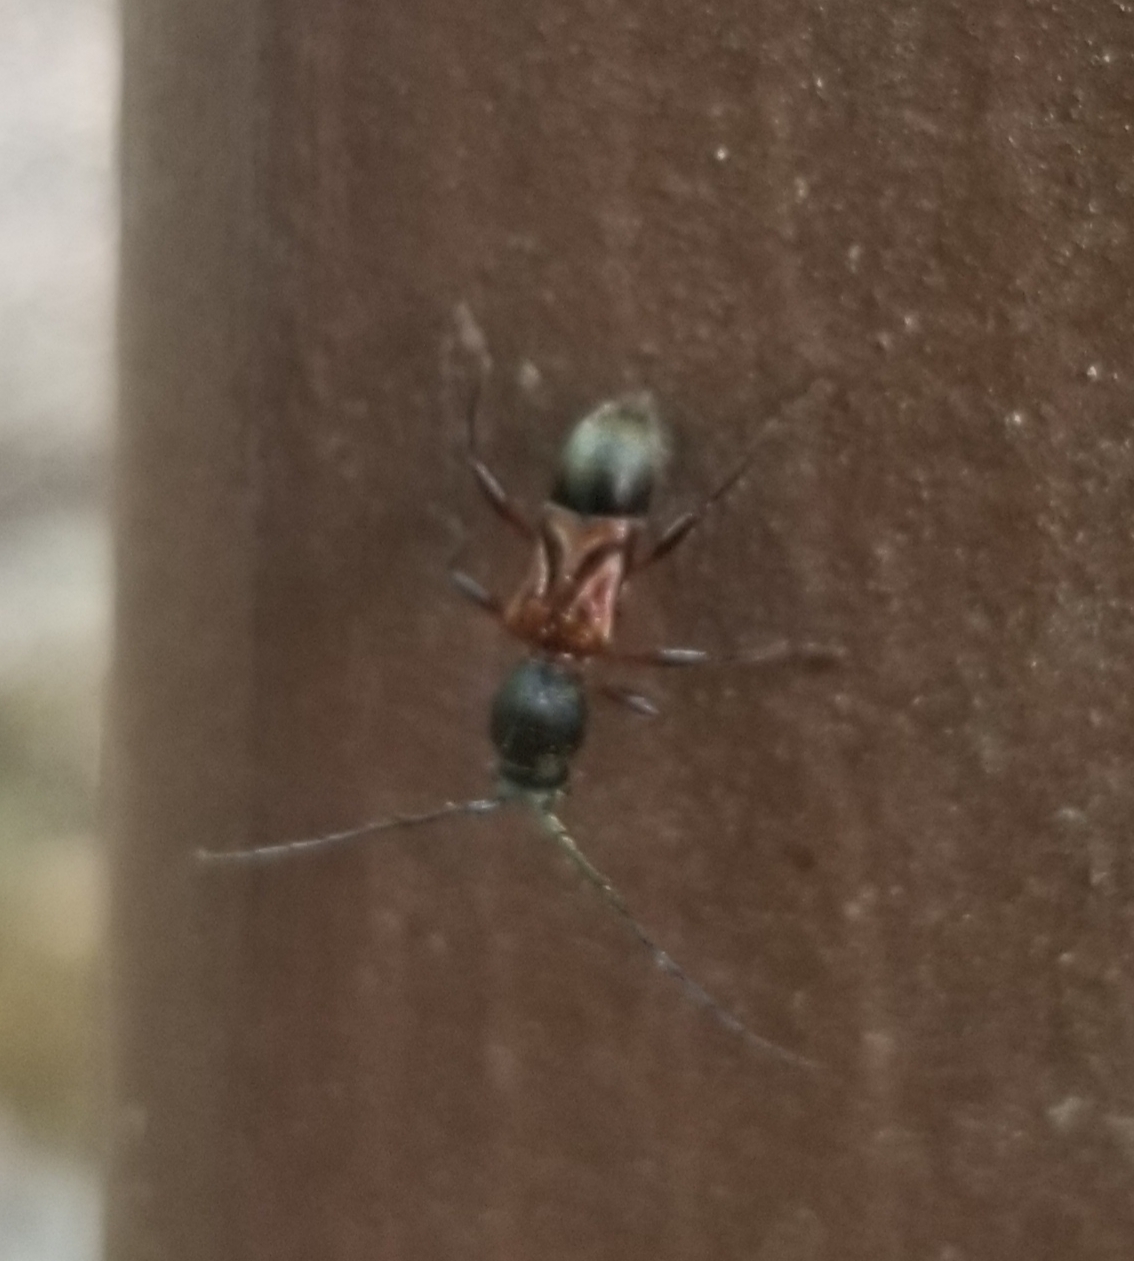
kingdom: Animalia
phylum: Arthropoda
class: Insecta
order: Coleoptera
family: Cerambycidae
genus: Cyrtophorus
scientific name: Cyrtophorus verrucosus
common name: Ant-like longhorn beetle
